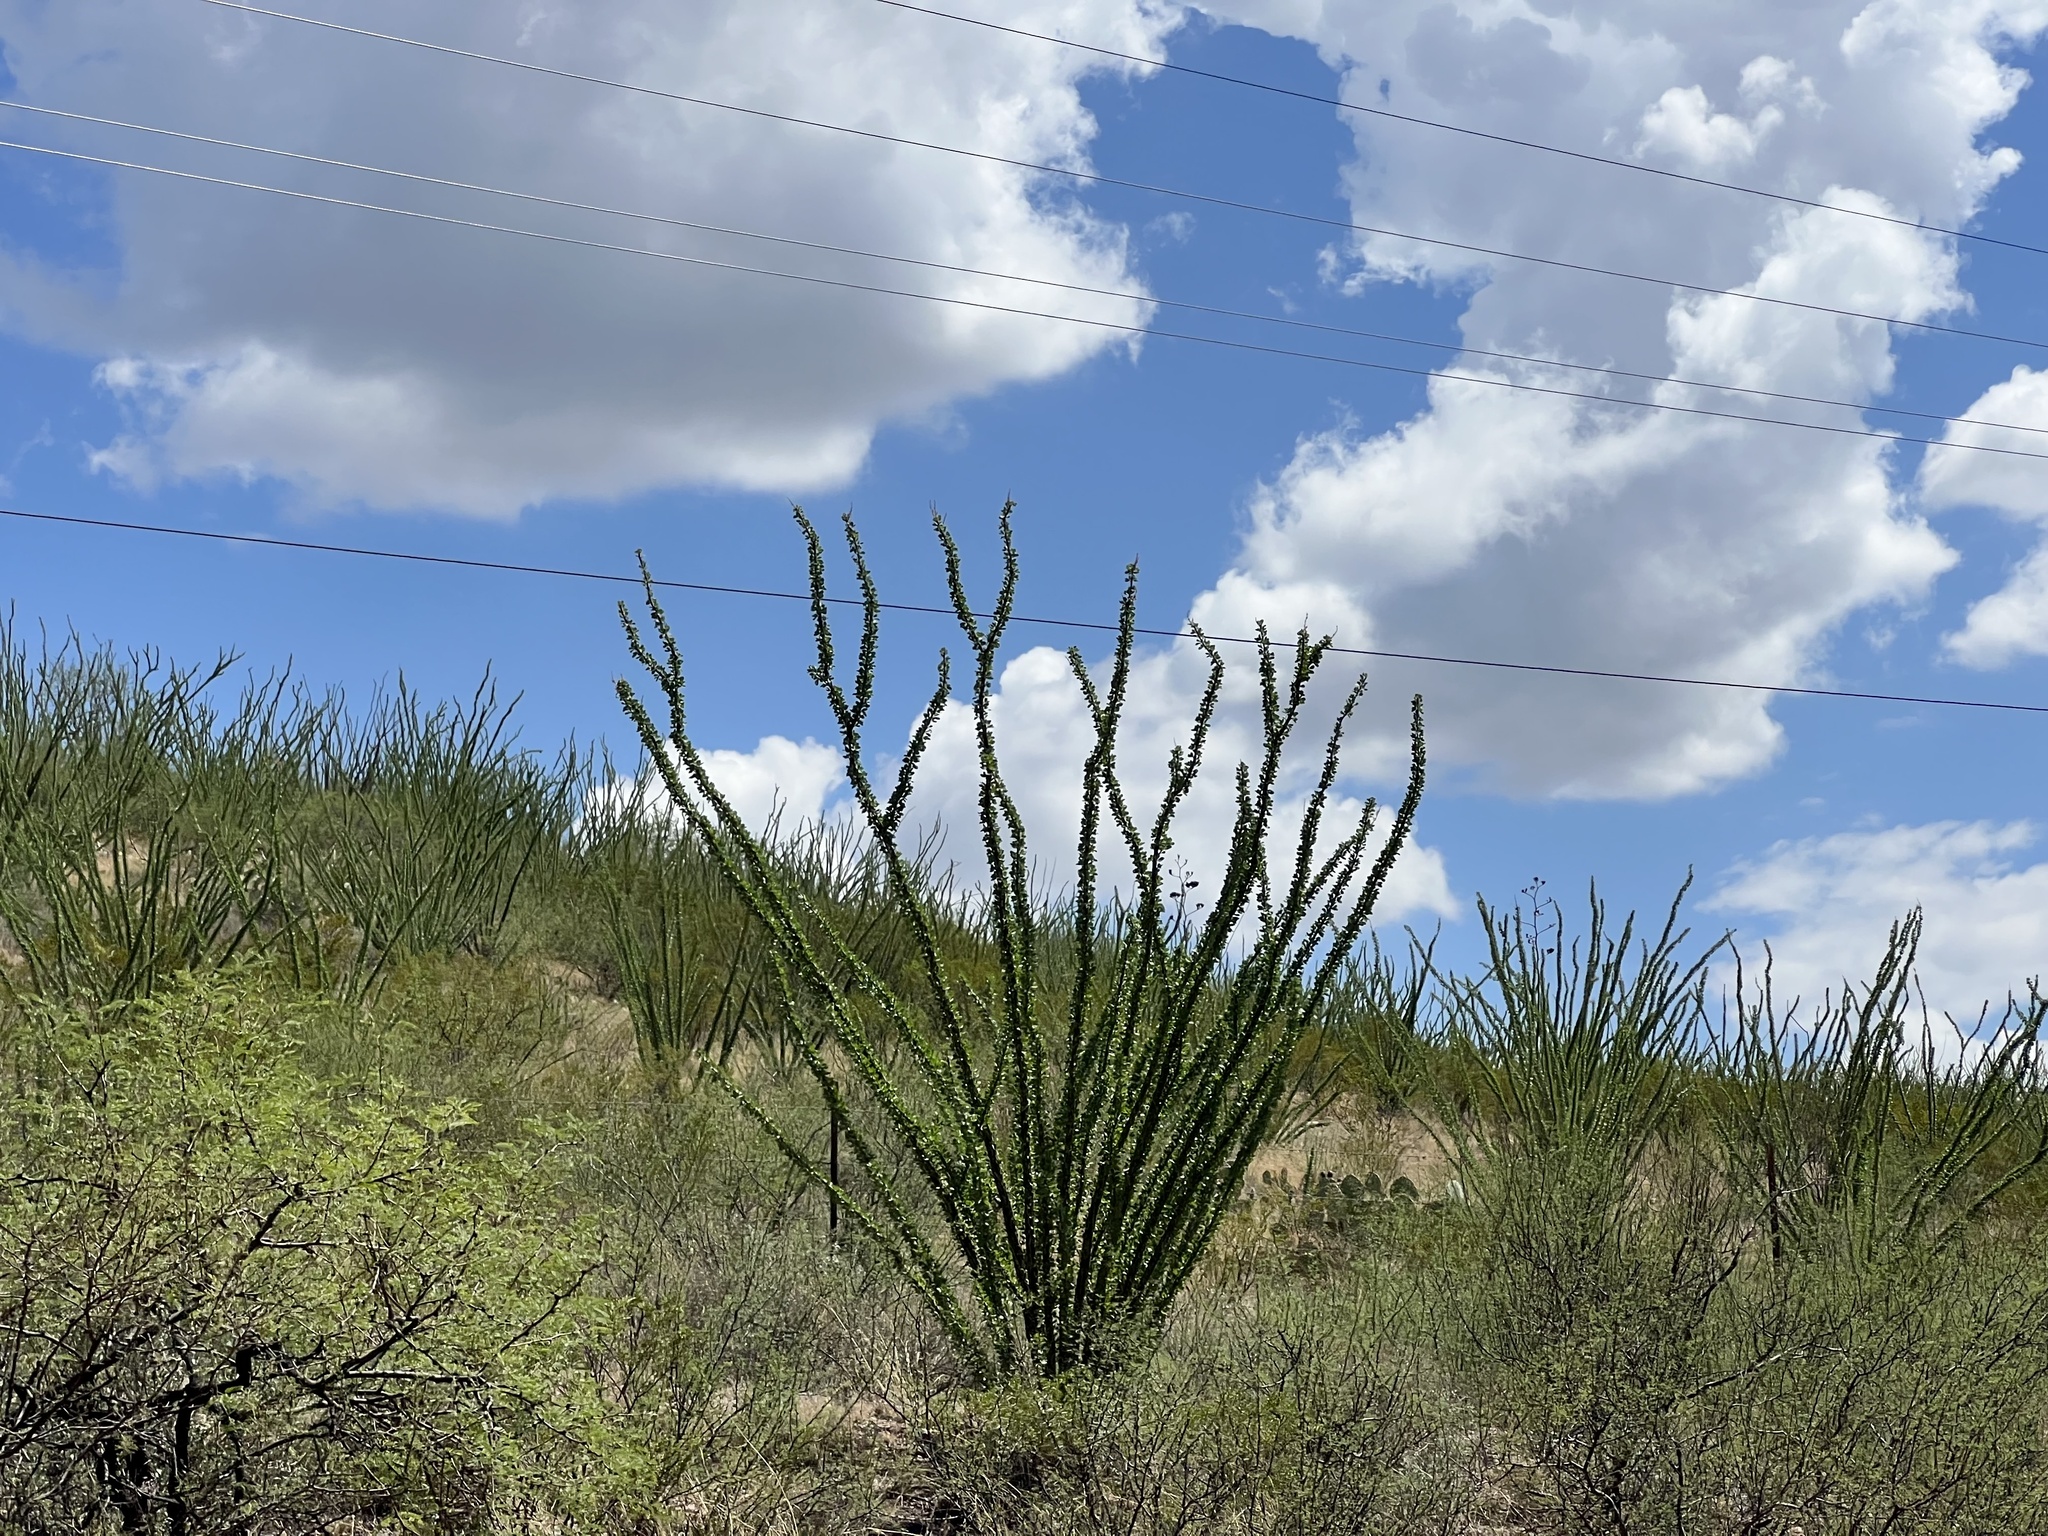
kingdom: Plantae
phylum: Tracheophyta
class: Magnoliopsida
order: Ericales
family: Fouquieriaceae
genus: Fouquieria
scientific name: Fouquieria splendens
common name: Vine-cactus
